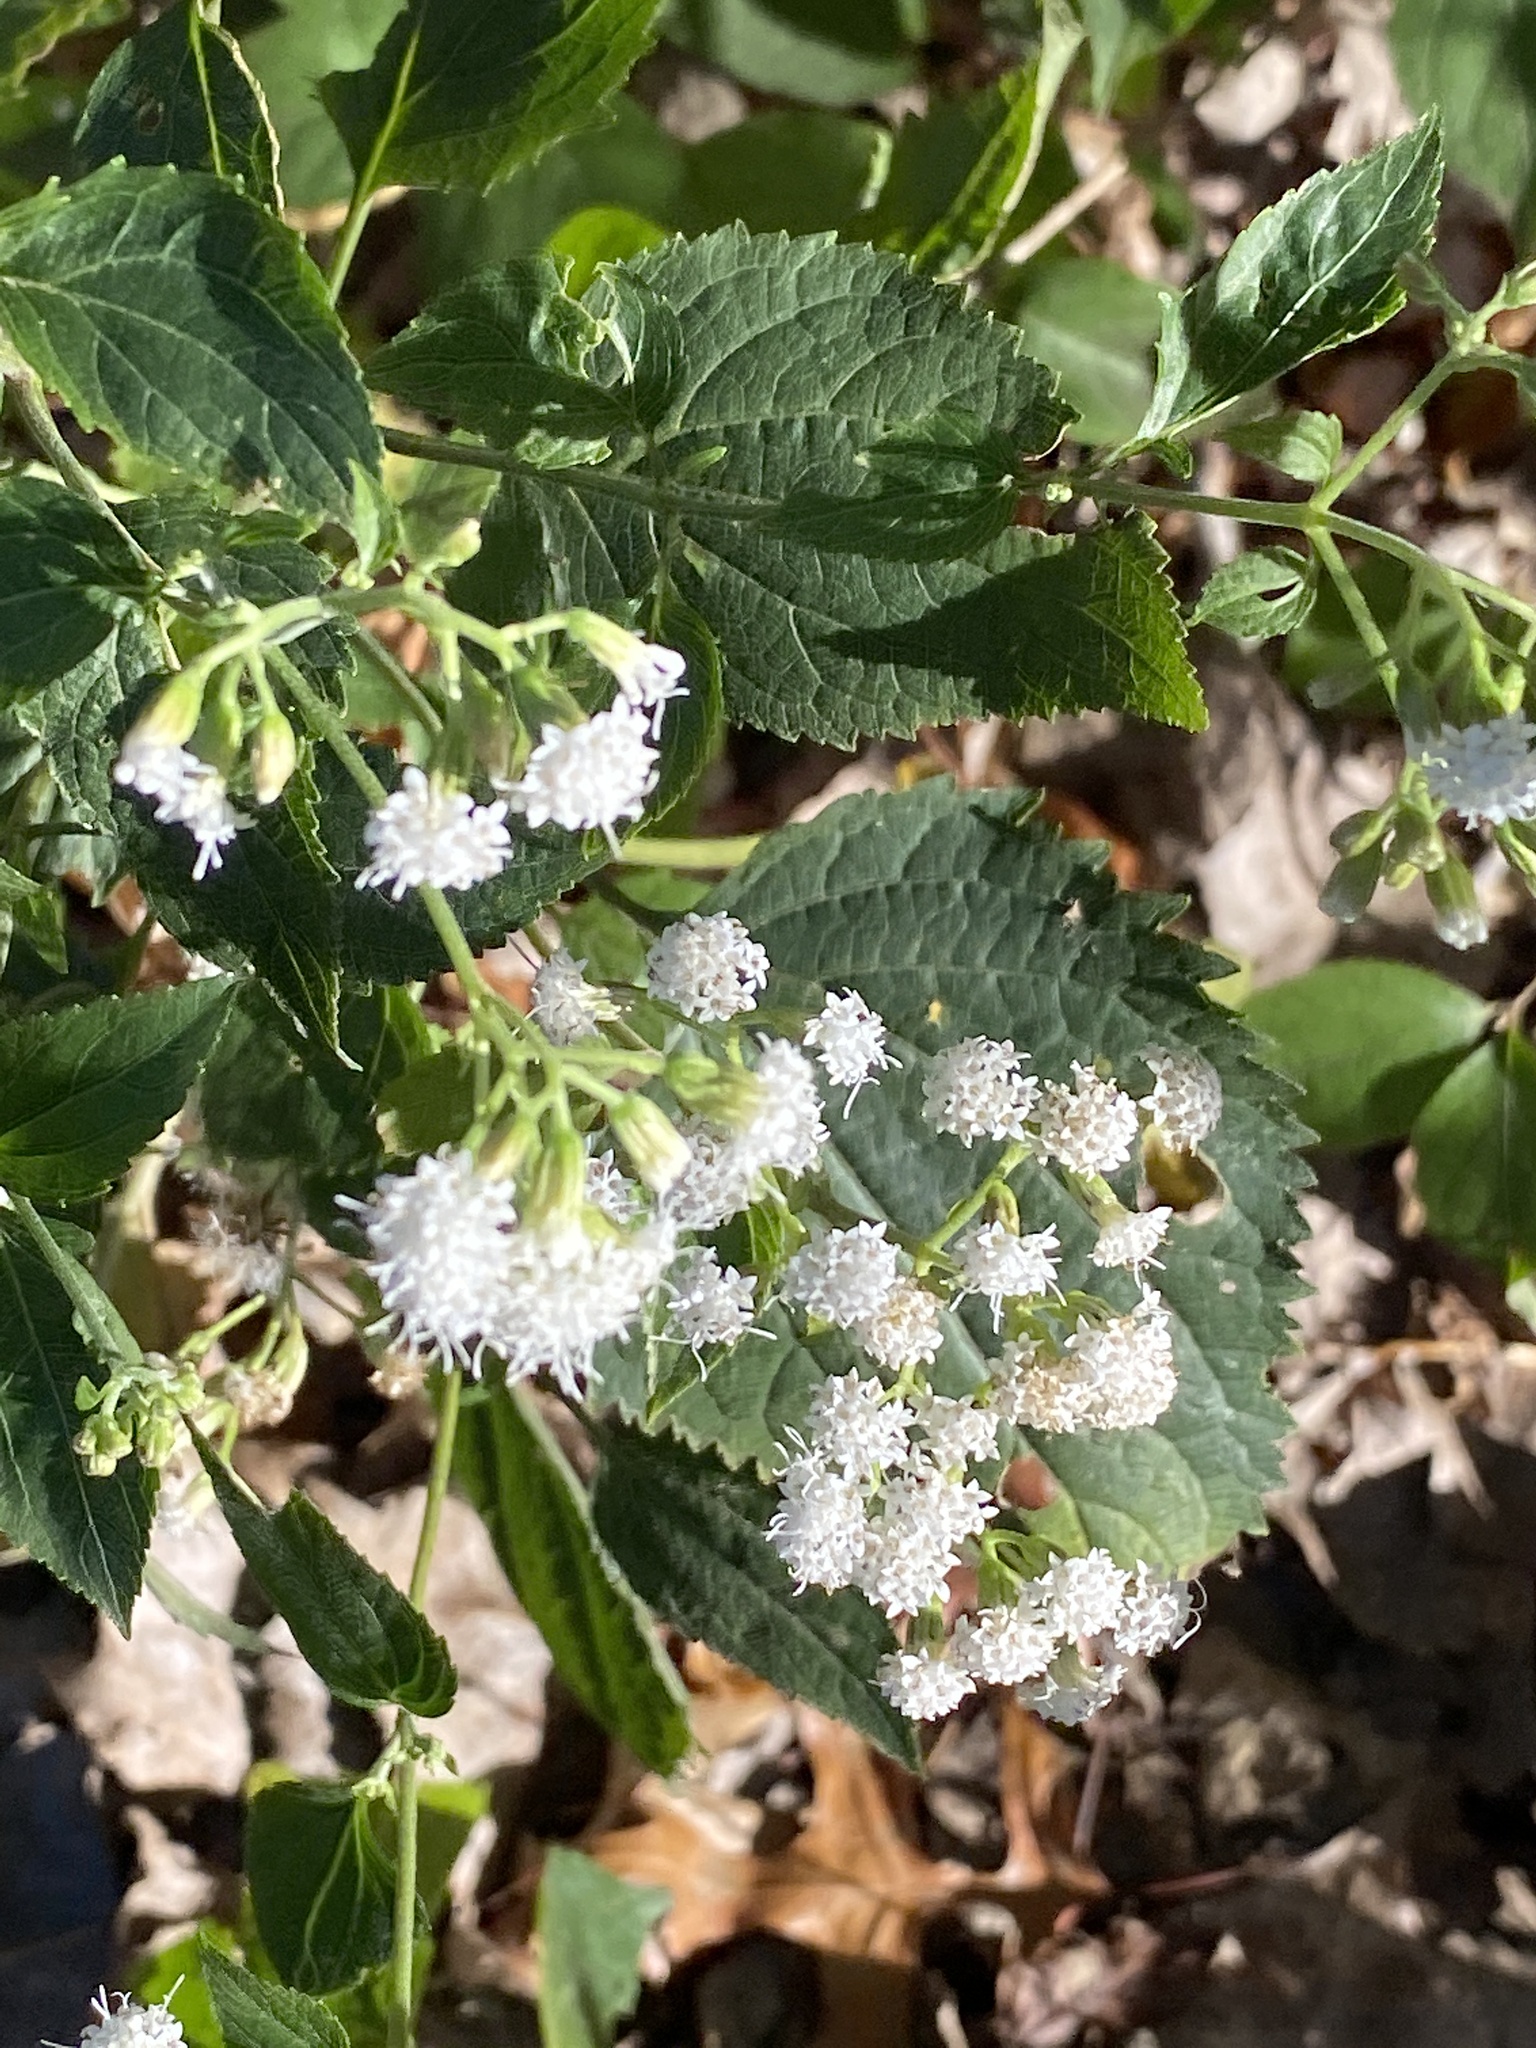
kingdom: Plantae
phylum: Tracheophyta
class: Magnoliopsida
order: Asterales
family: Asteraceae
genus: Ageratina
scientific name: Ageratina altissima
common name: White snakeroot
